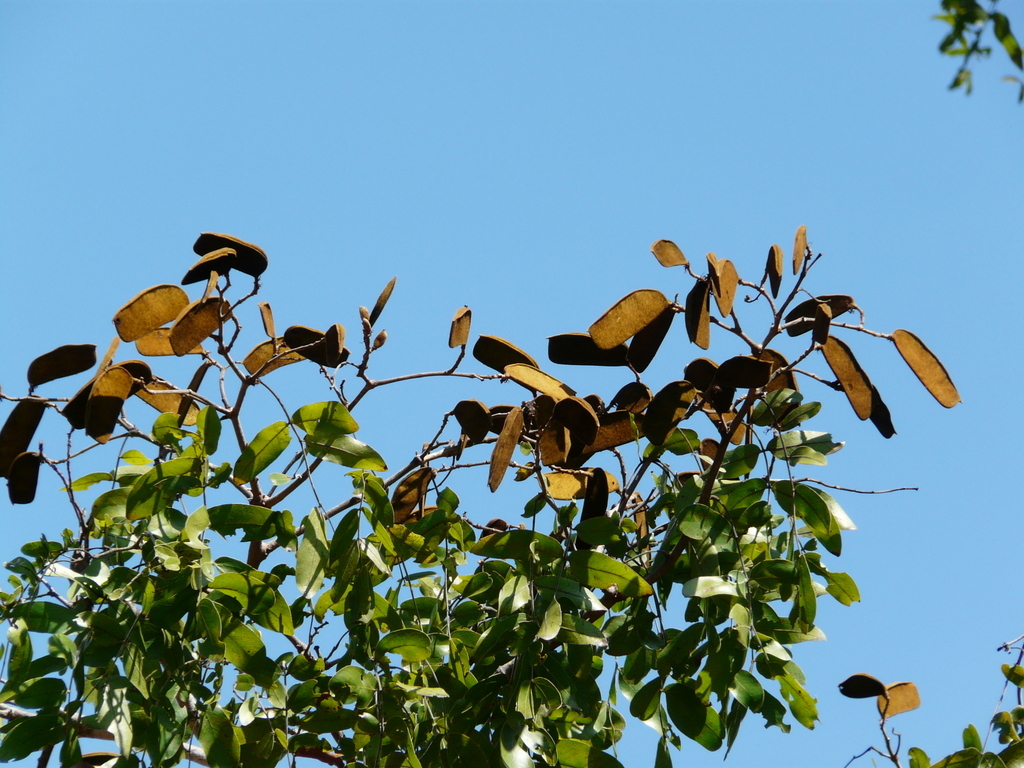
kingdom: Plantae
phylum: Tracheophyta
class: Magnoliopsida
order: Fabales
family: Fabaceae
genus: Julbernardia
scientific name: Julbernardia globiflora
